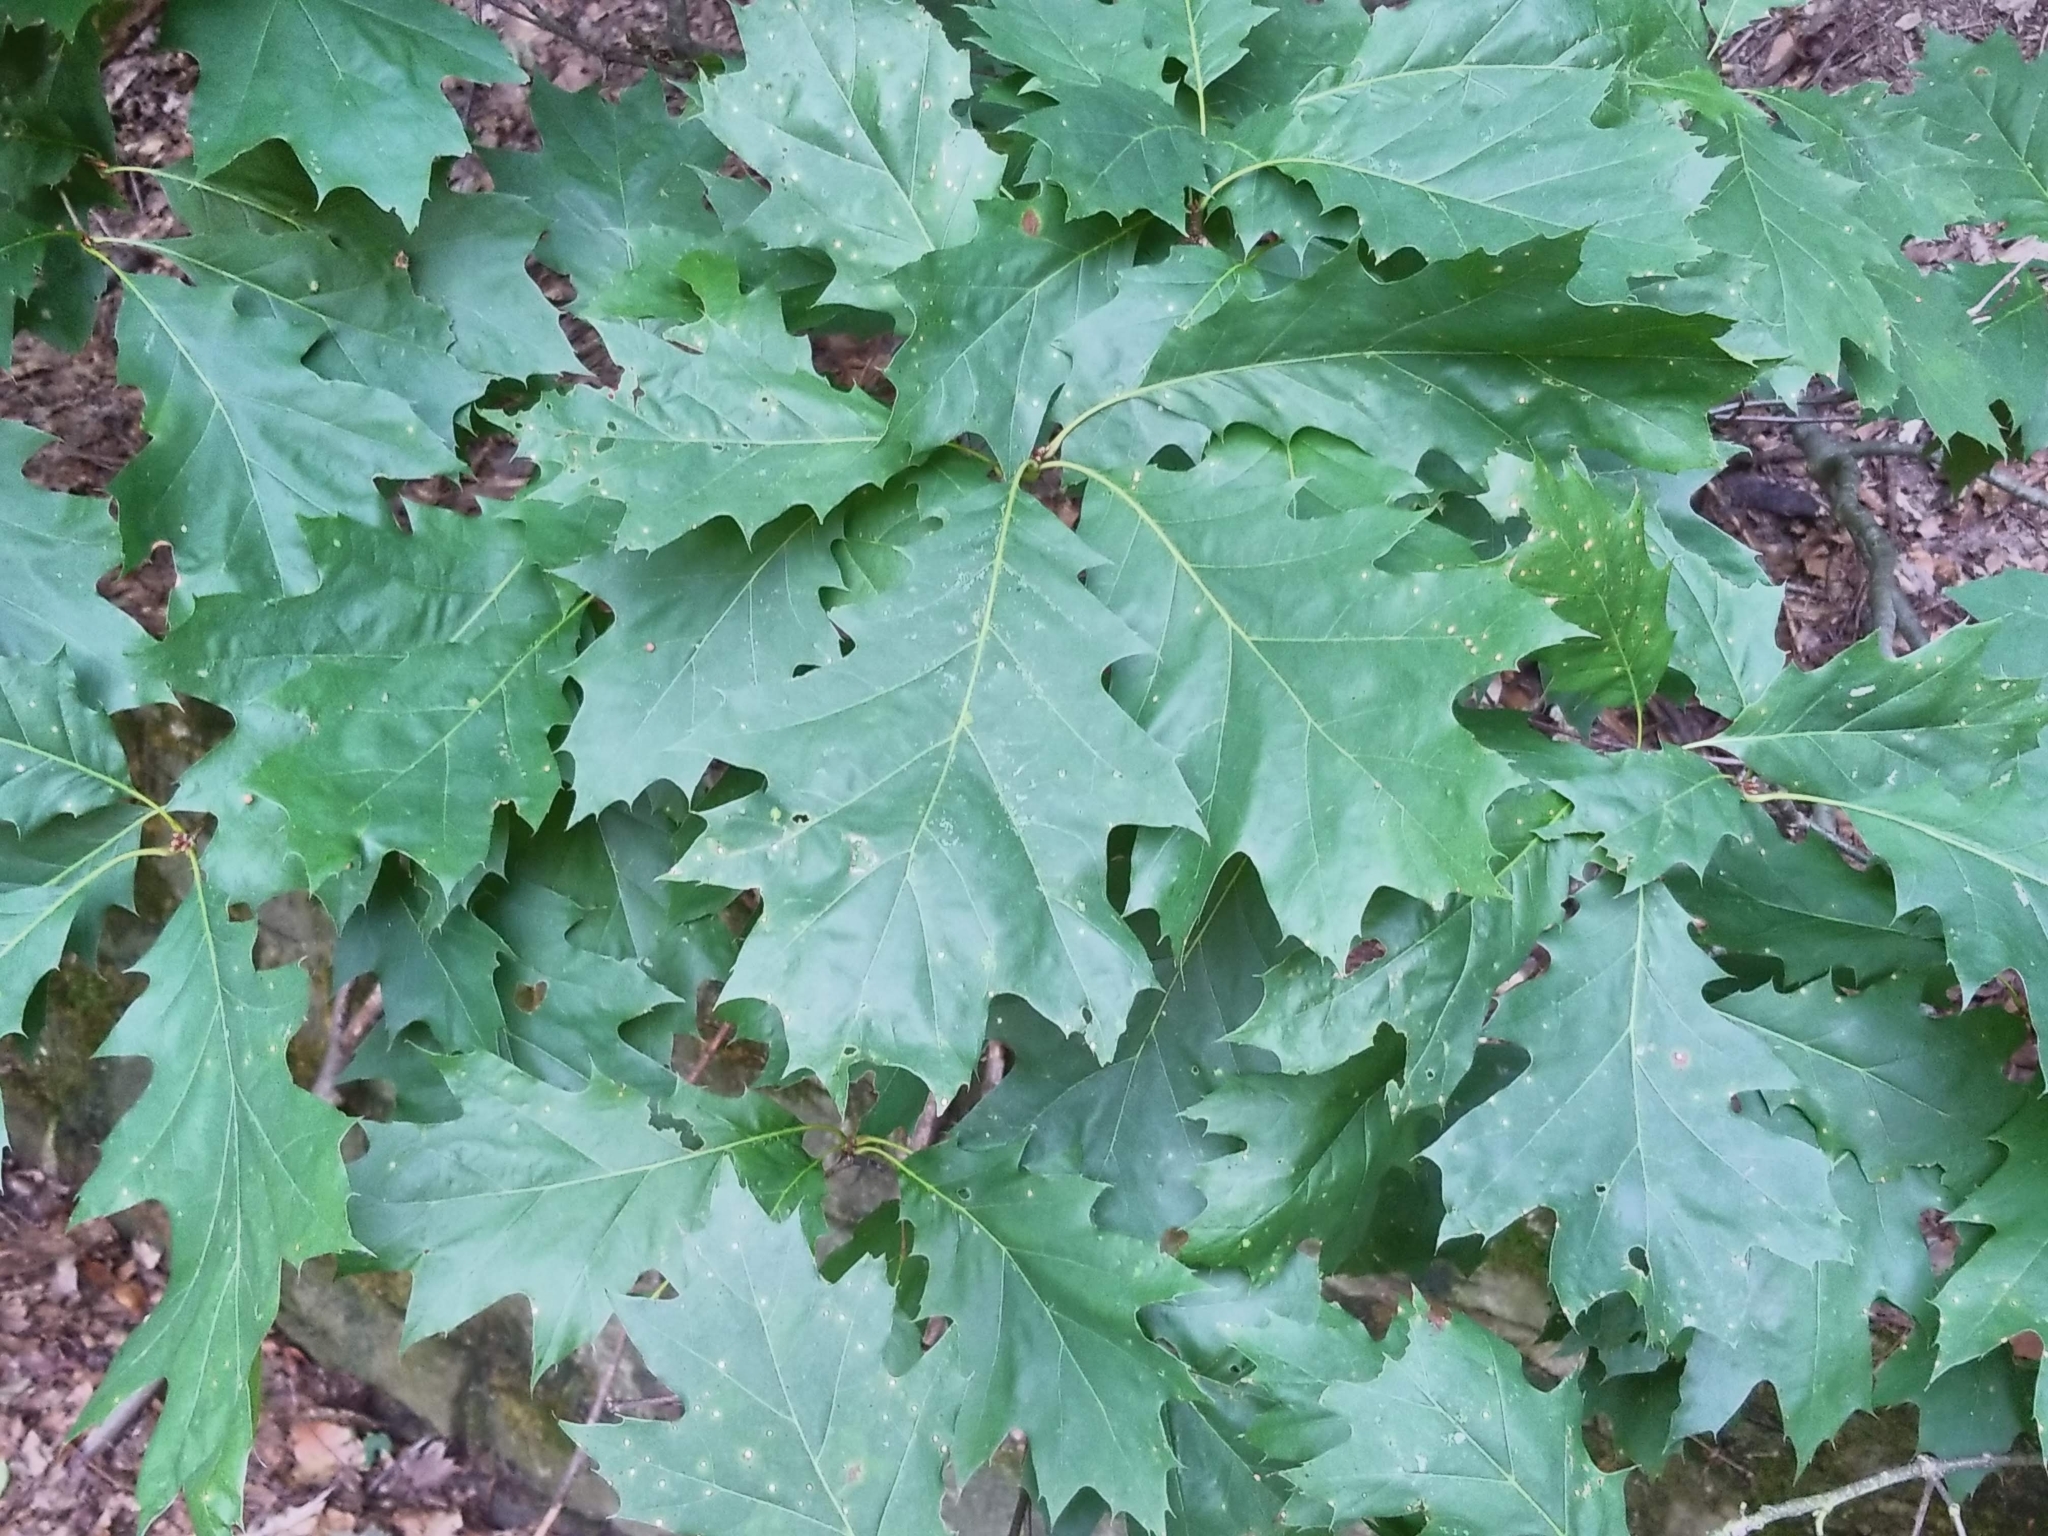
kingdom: Plantae
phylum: Tracheophyta
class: Magnoliopsida
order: Fagales
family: Fagaceae
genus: Quercus
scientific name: Quercus rubra
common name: Red oak
